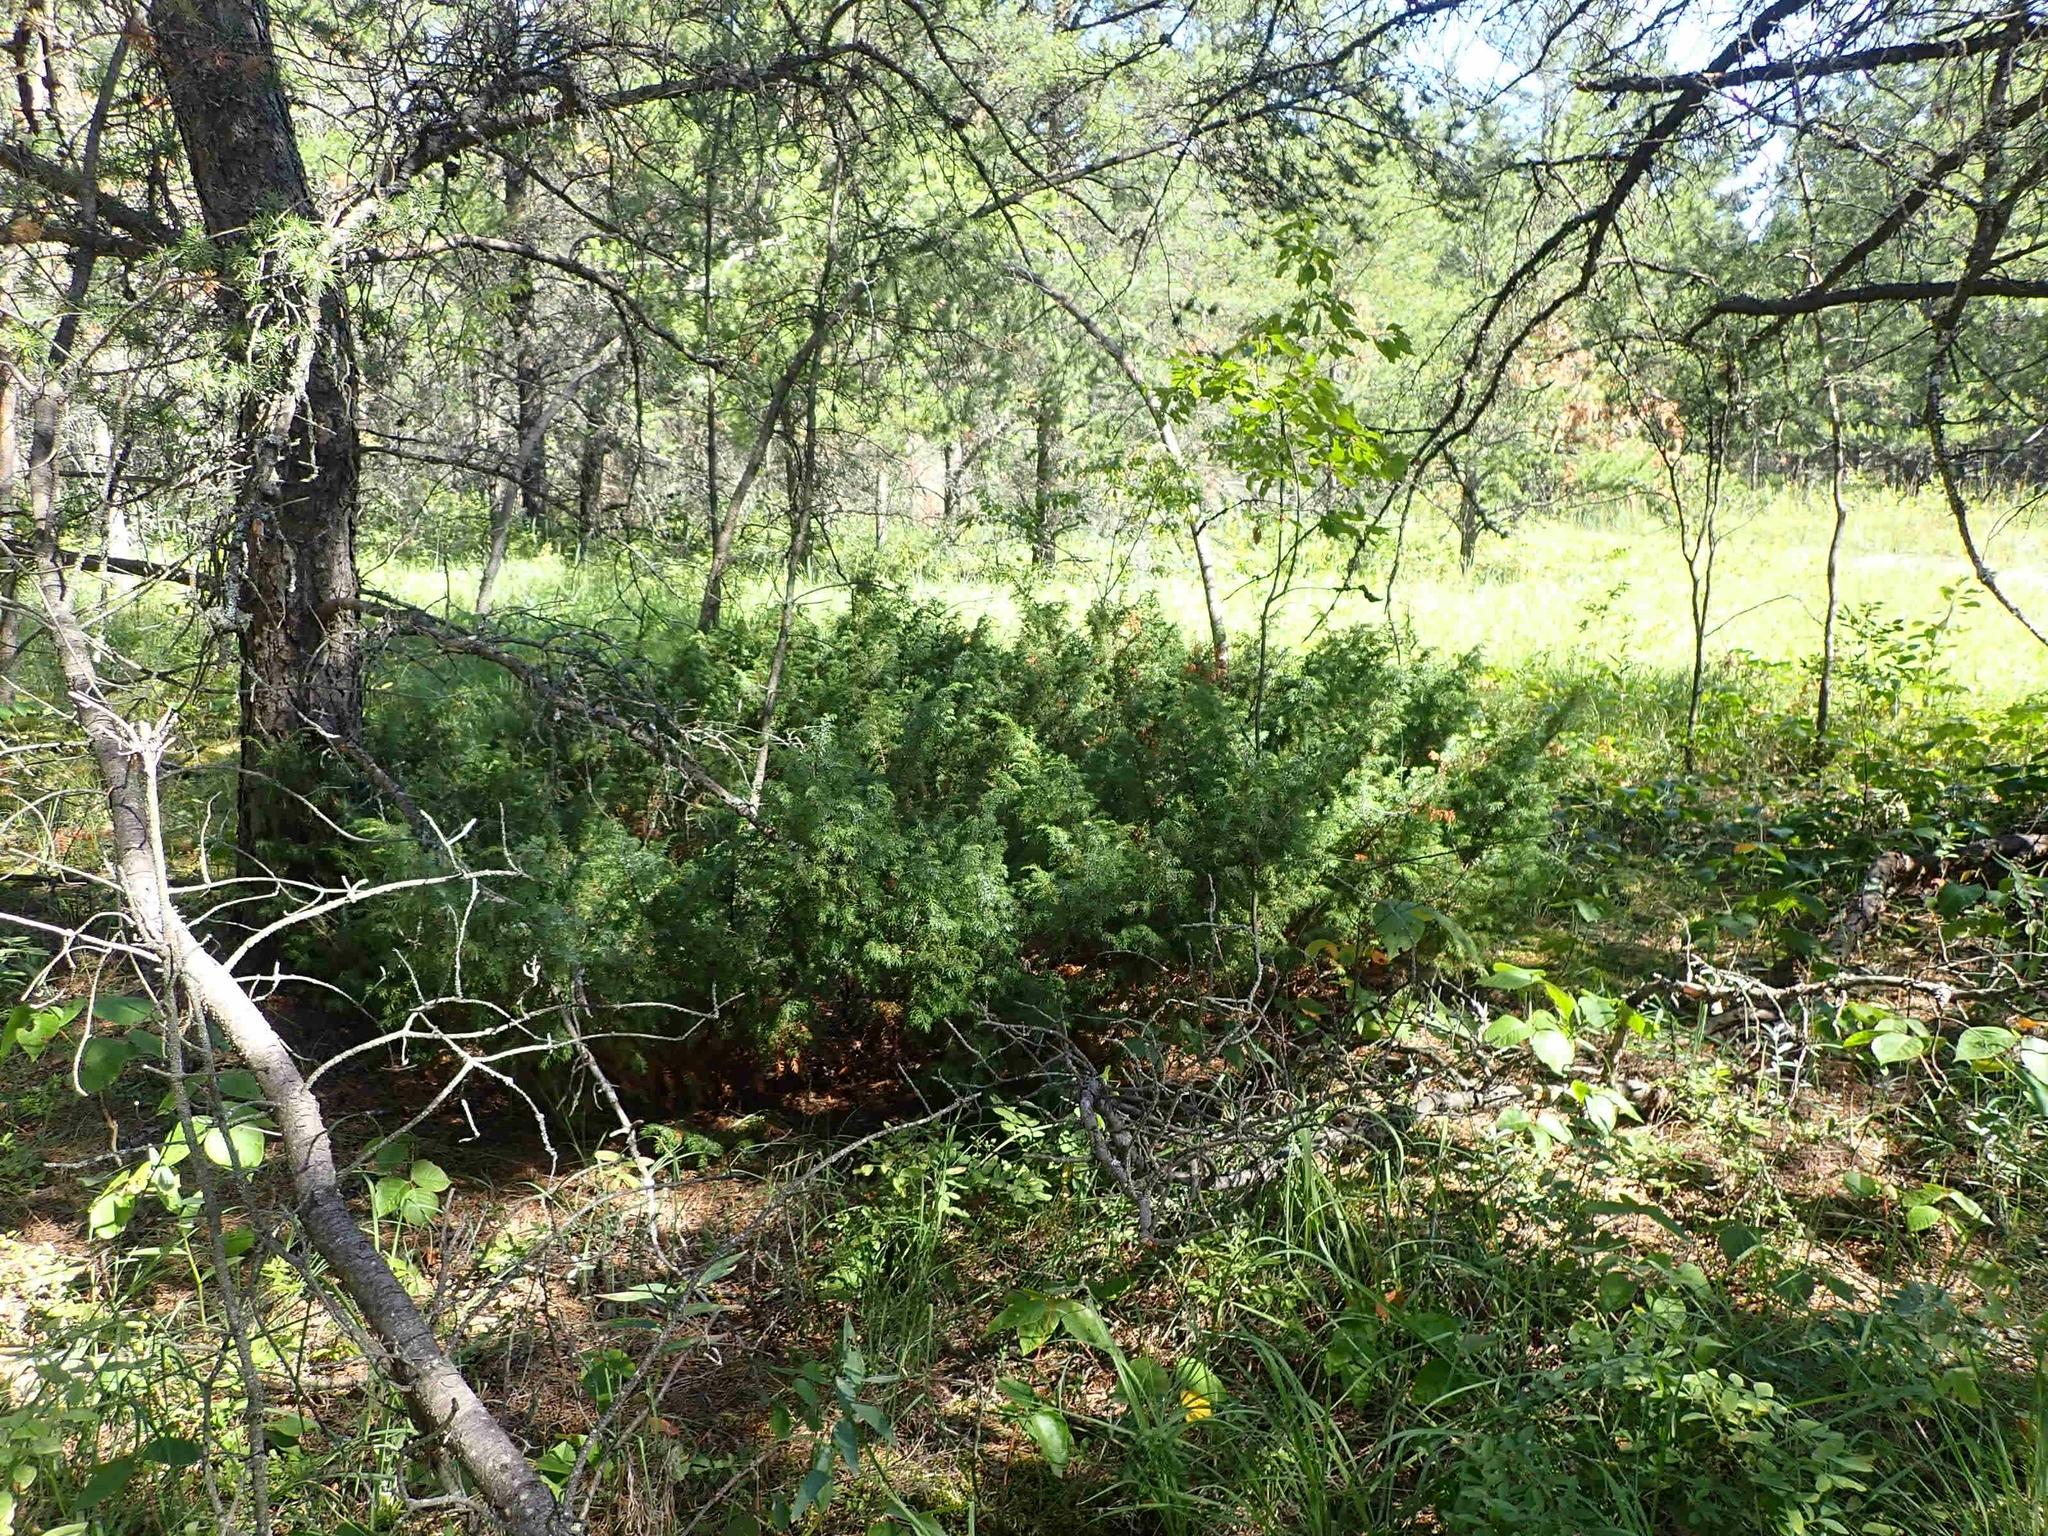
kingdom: Plantae
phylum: Tracheophyta
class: Pinopsida
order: Pinales
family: Cupressaceae
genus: Juniperus
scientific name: Juniperus communis
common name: Common juniper
